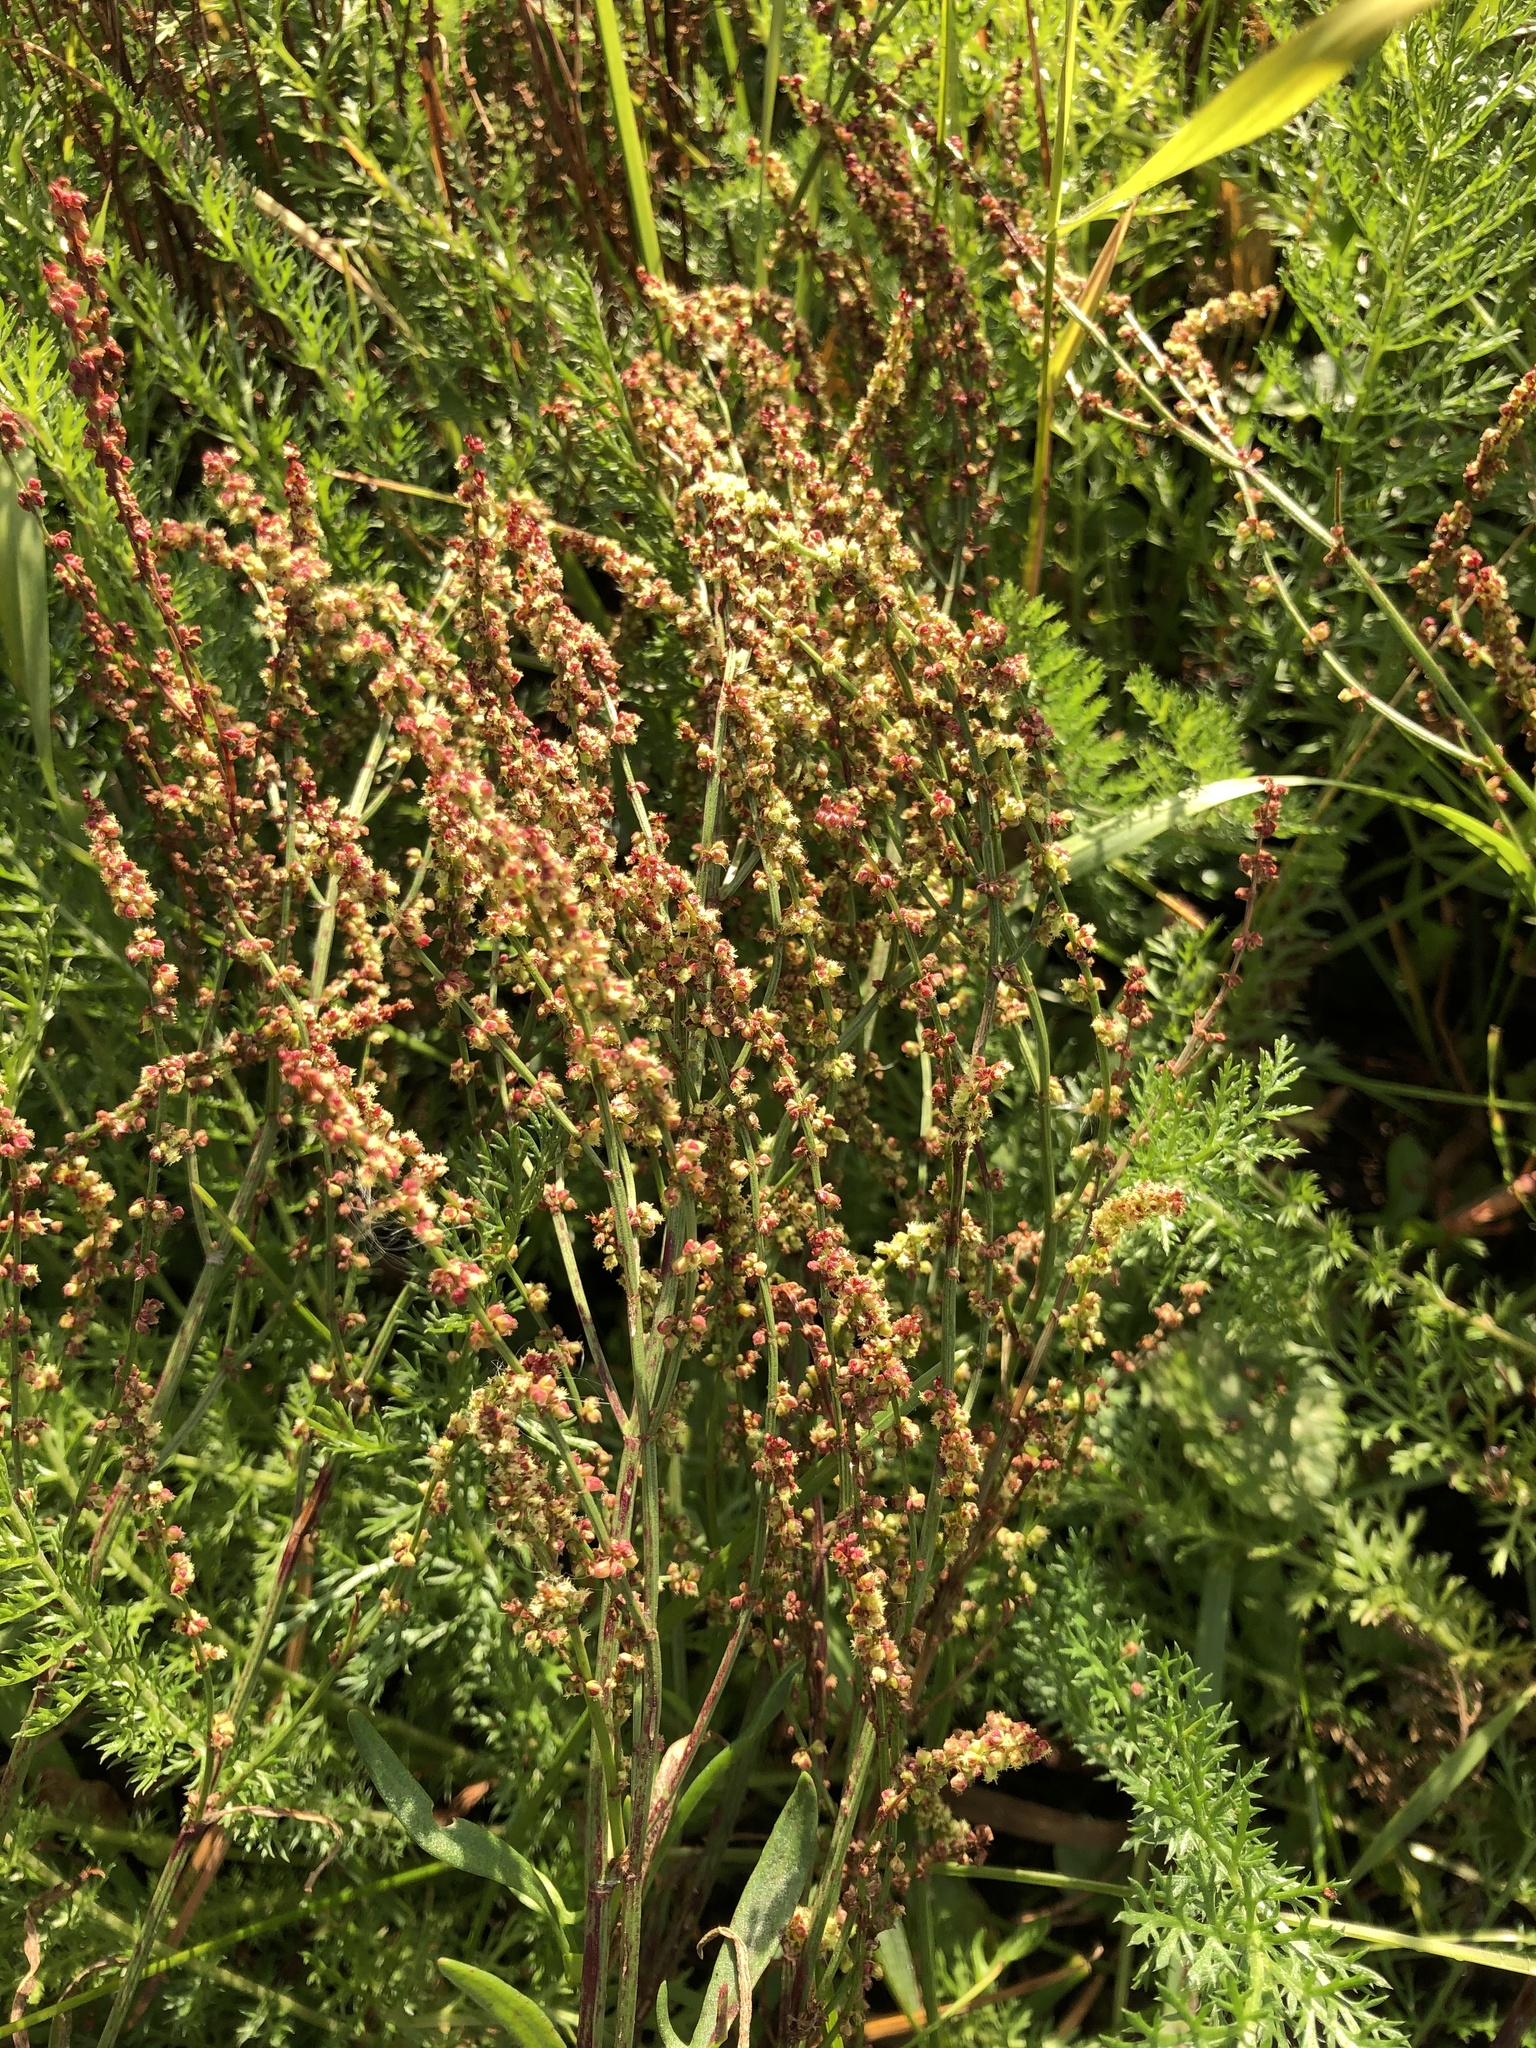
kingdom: Plantae
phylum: Tracheophyta
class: Magnoliopsida
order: Caryophyllales
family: Polygonaceae
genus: Rumex
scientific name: Rumex acetosella
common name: Common sheep sorrel
